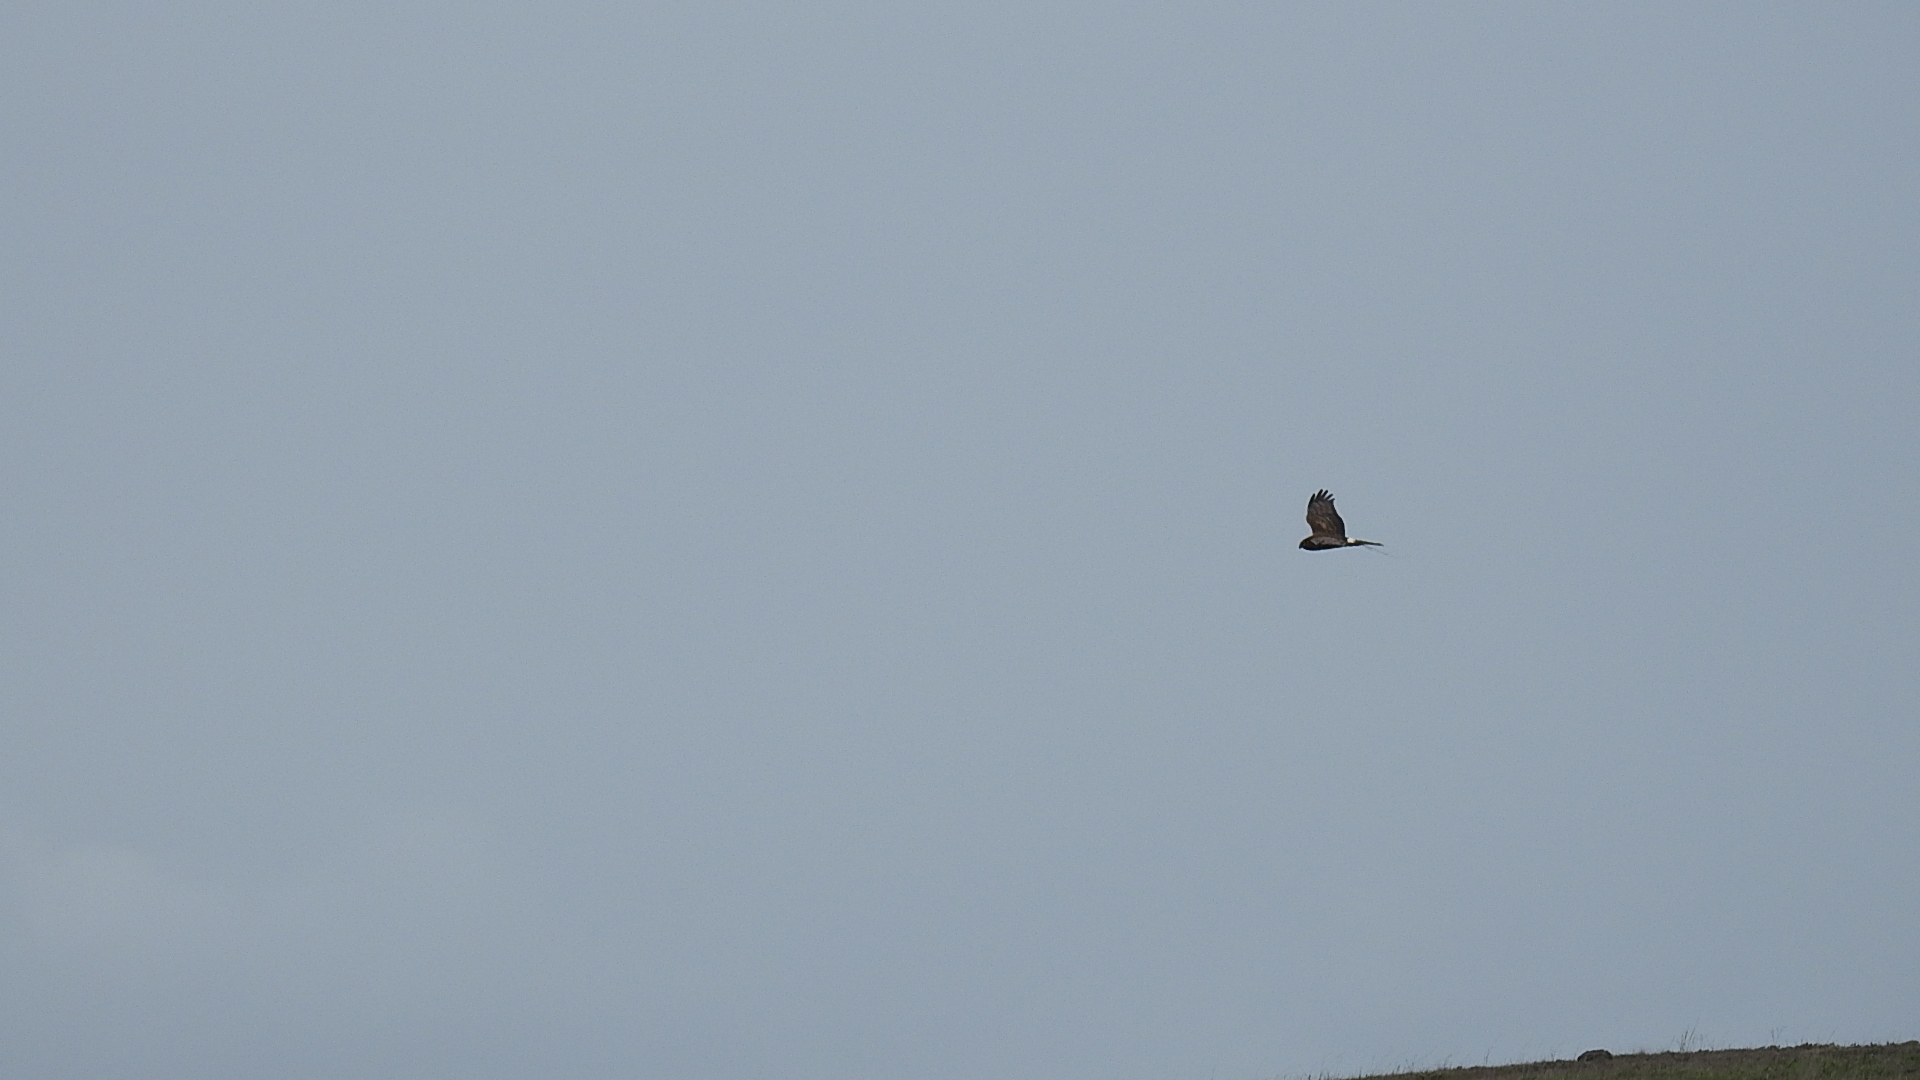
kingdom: Animalia
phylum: Chordata
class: Aves
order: Accipitriformes
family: Accipitridae
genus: Circus
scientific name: Circus cyaneus
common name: Hen harrier
